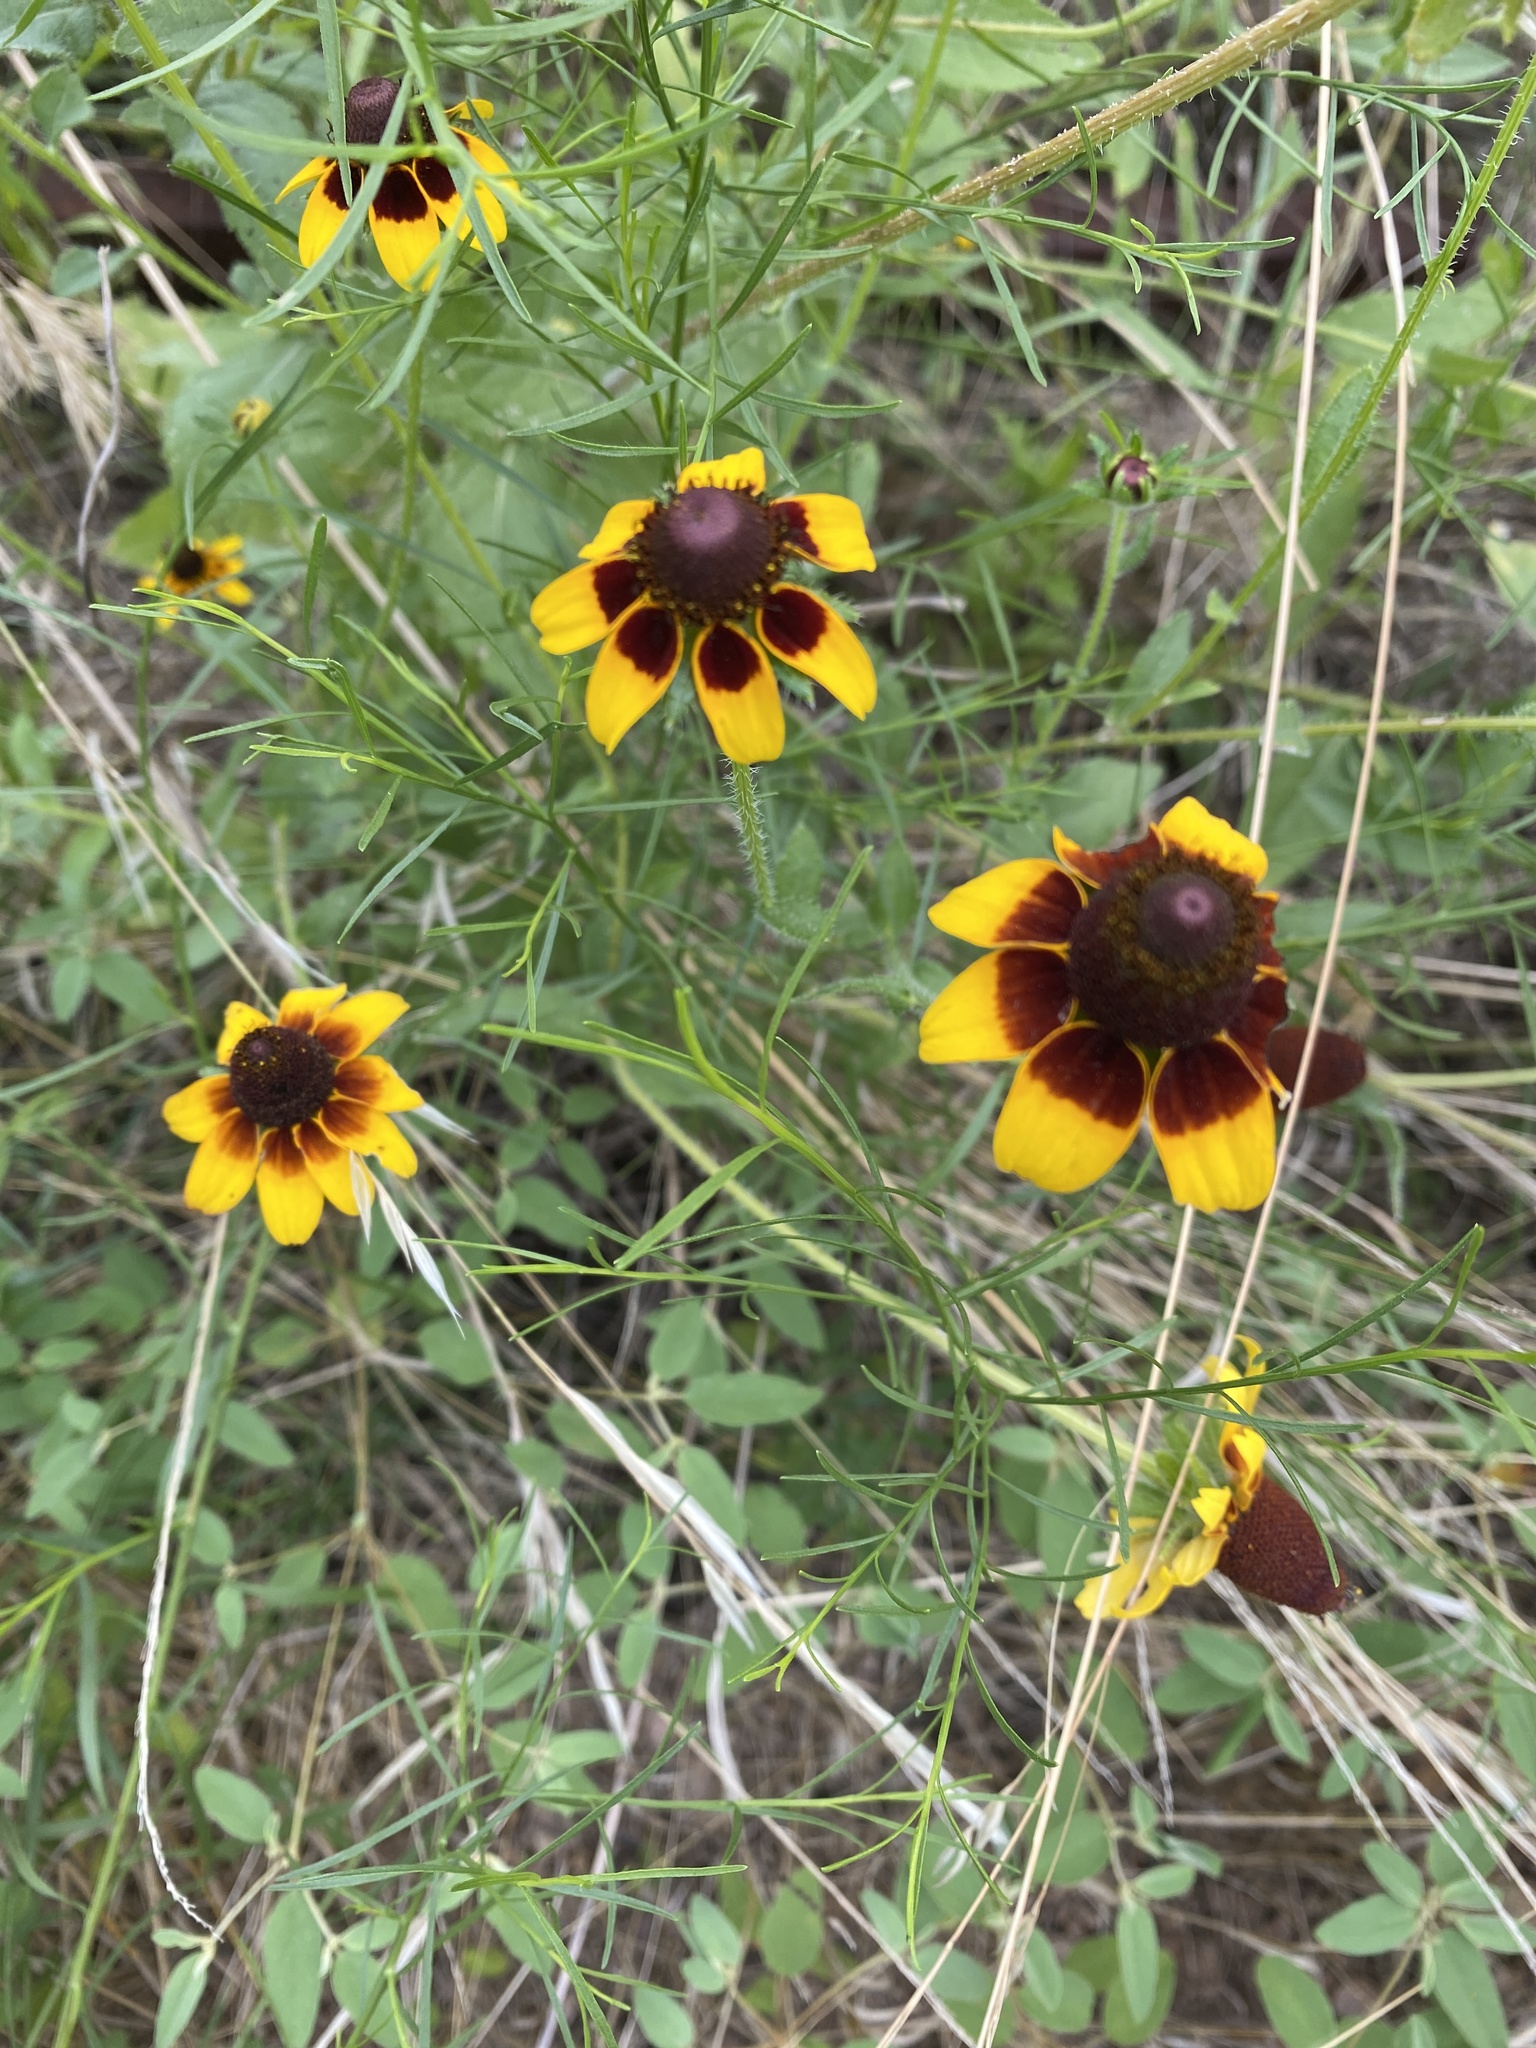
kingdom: Plantae
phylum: Tracheophyta
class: Magnoliopsida
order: Asterales
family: Asteraceae
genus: Rudbeckia
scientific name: Rudbeckia hirta
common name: Black-eyed-susan
